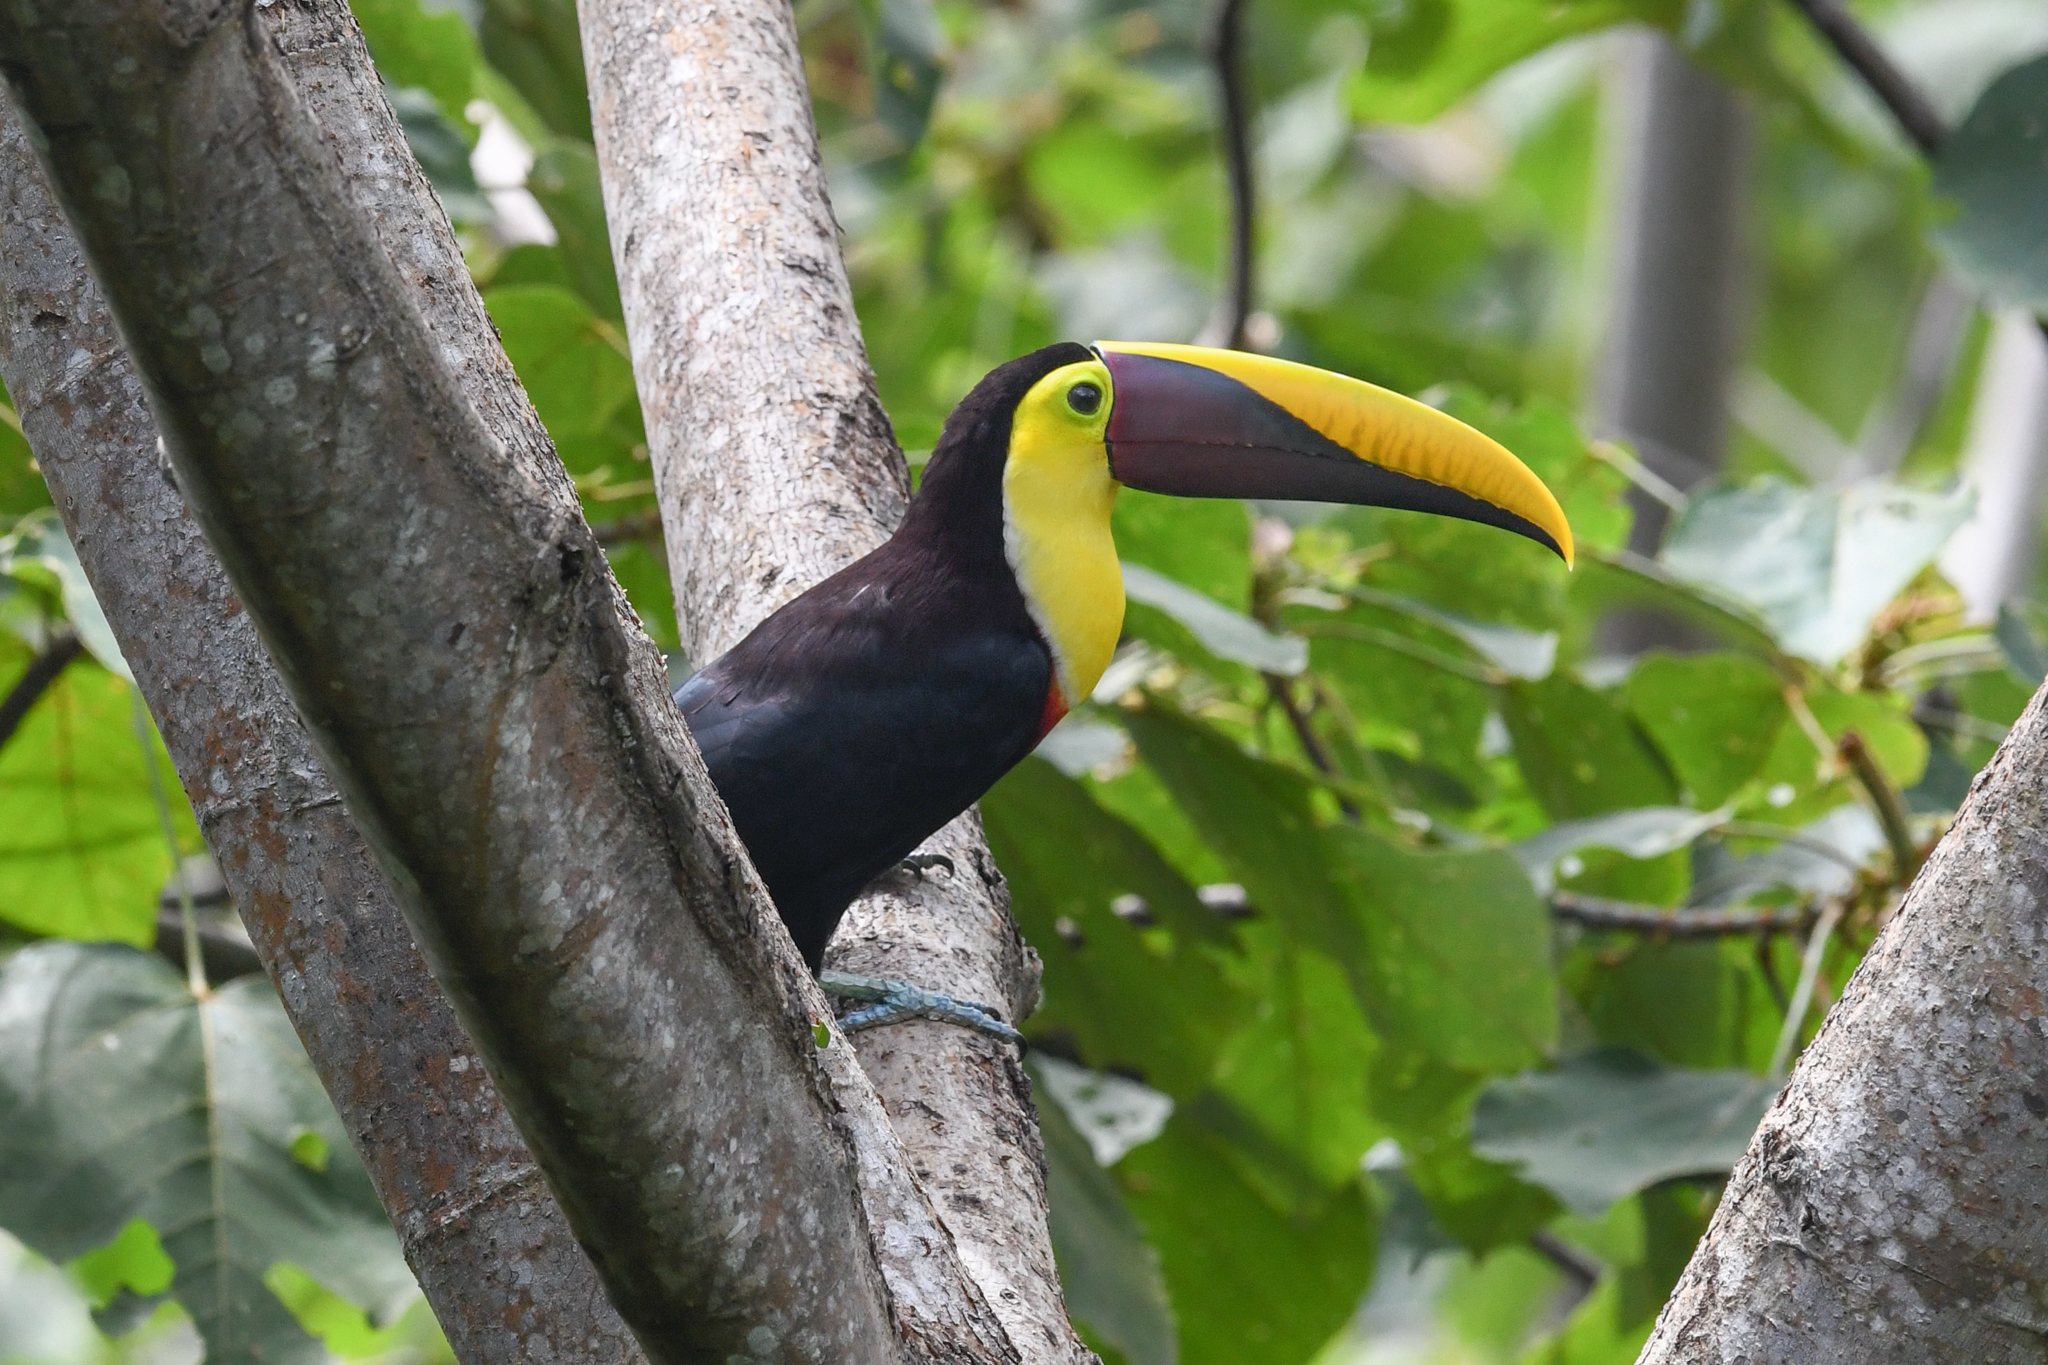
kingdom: Animalia
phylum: Chordata
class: Aves
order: Piciformes
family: Ramphastidae
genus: Ramphastos
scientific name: Ramphastos ambiguus
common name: Yellow-throated toucan
